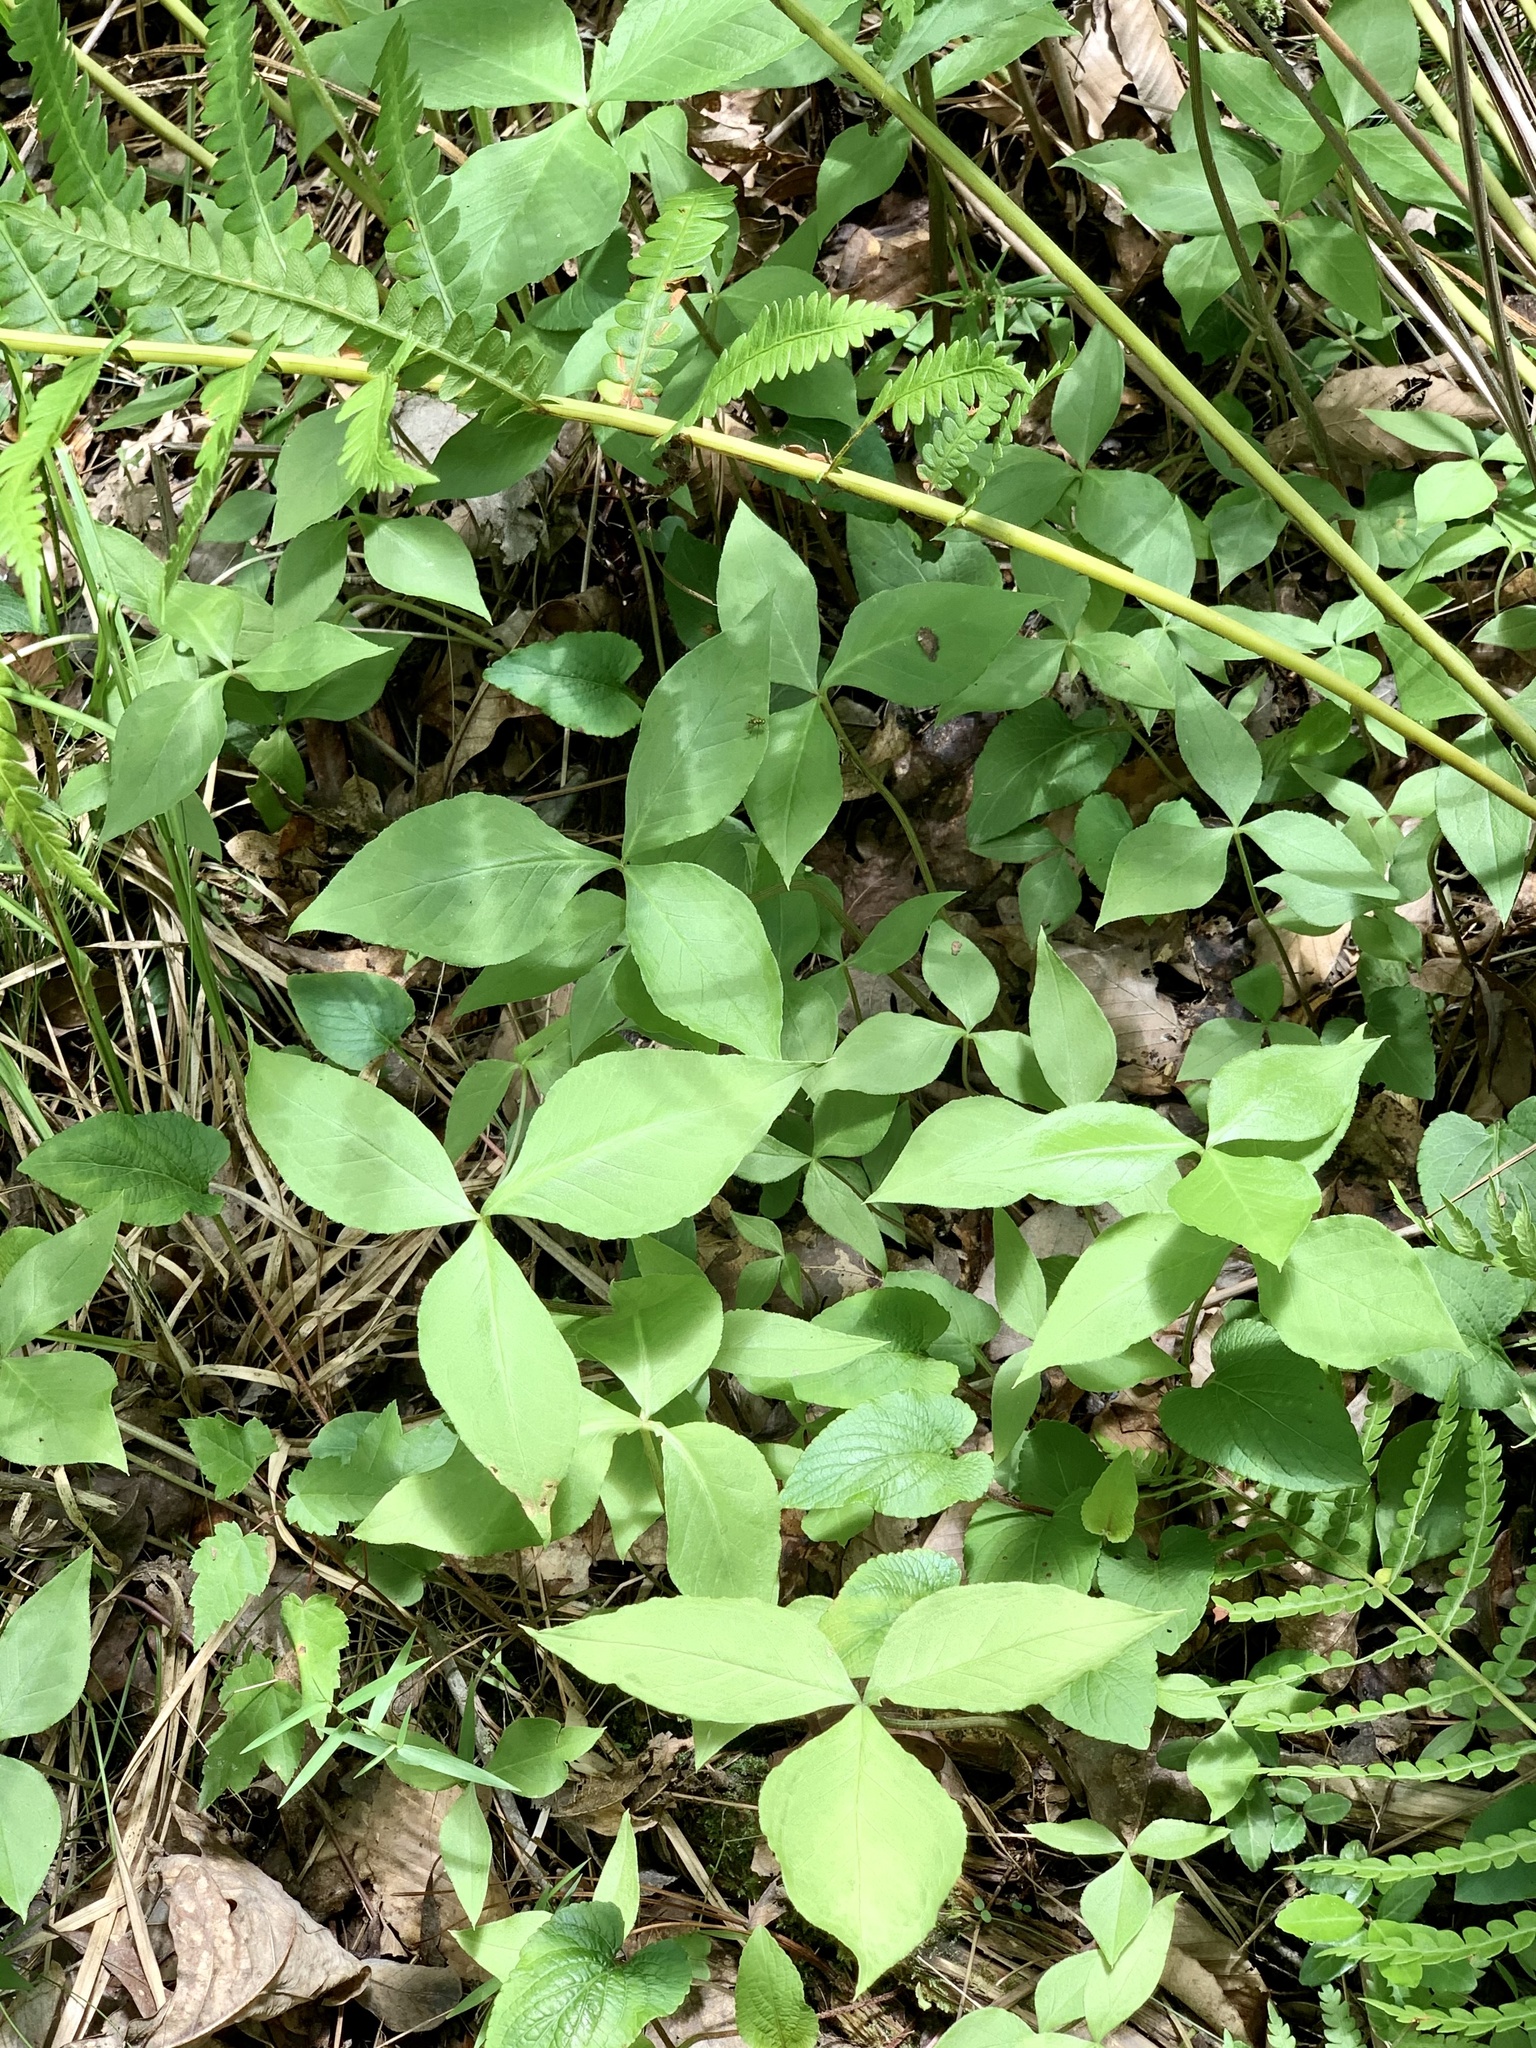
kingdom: Plantae
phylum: Tracheophyta
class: Liliopsida
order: Alismatales
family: Araceae
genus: Arisaema
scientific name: Arisaema triphyllum
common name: Jack-in-the-pulpit
